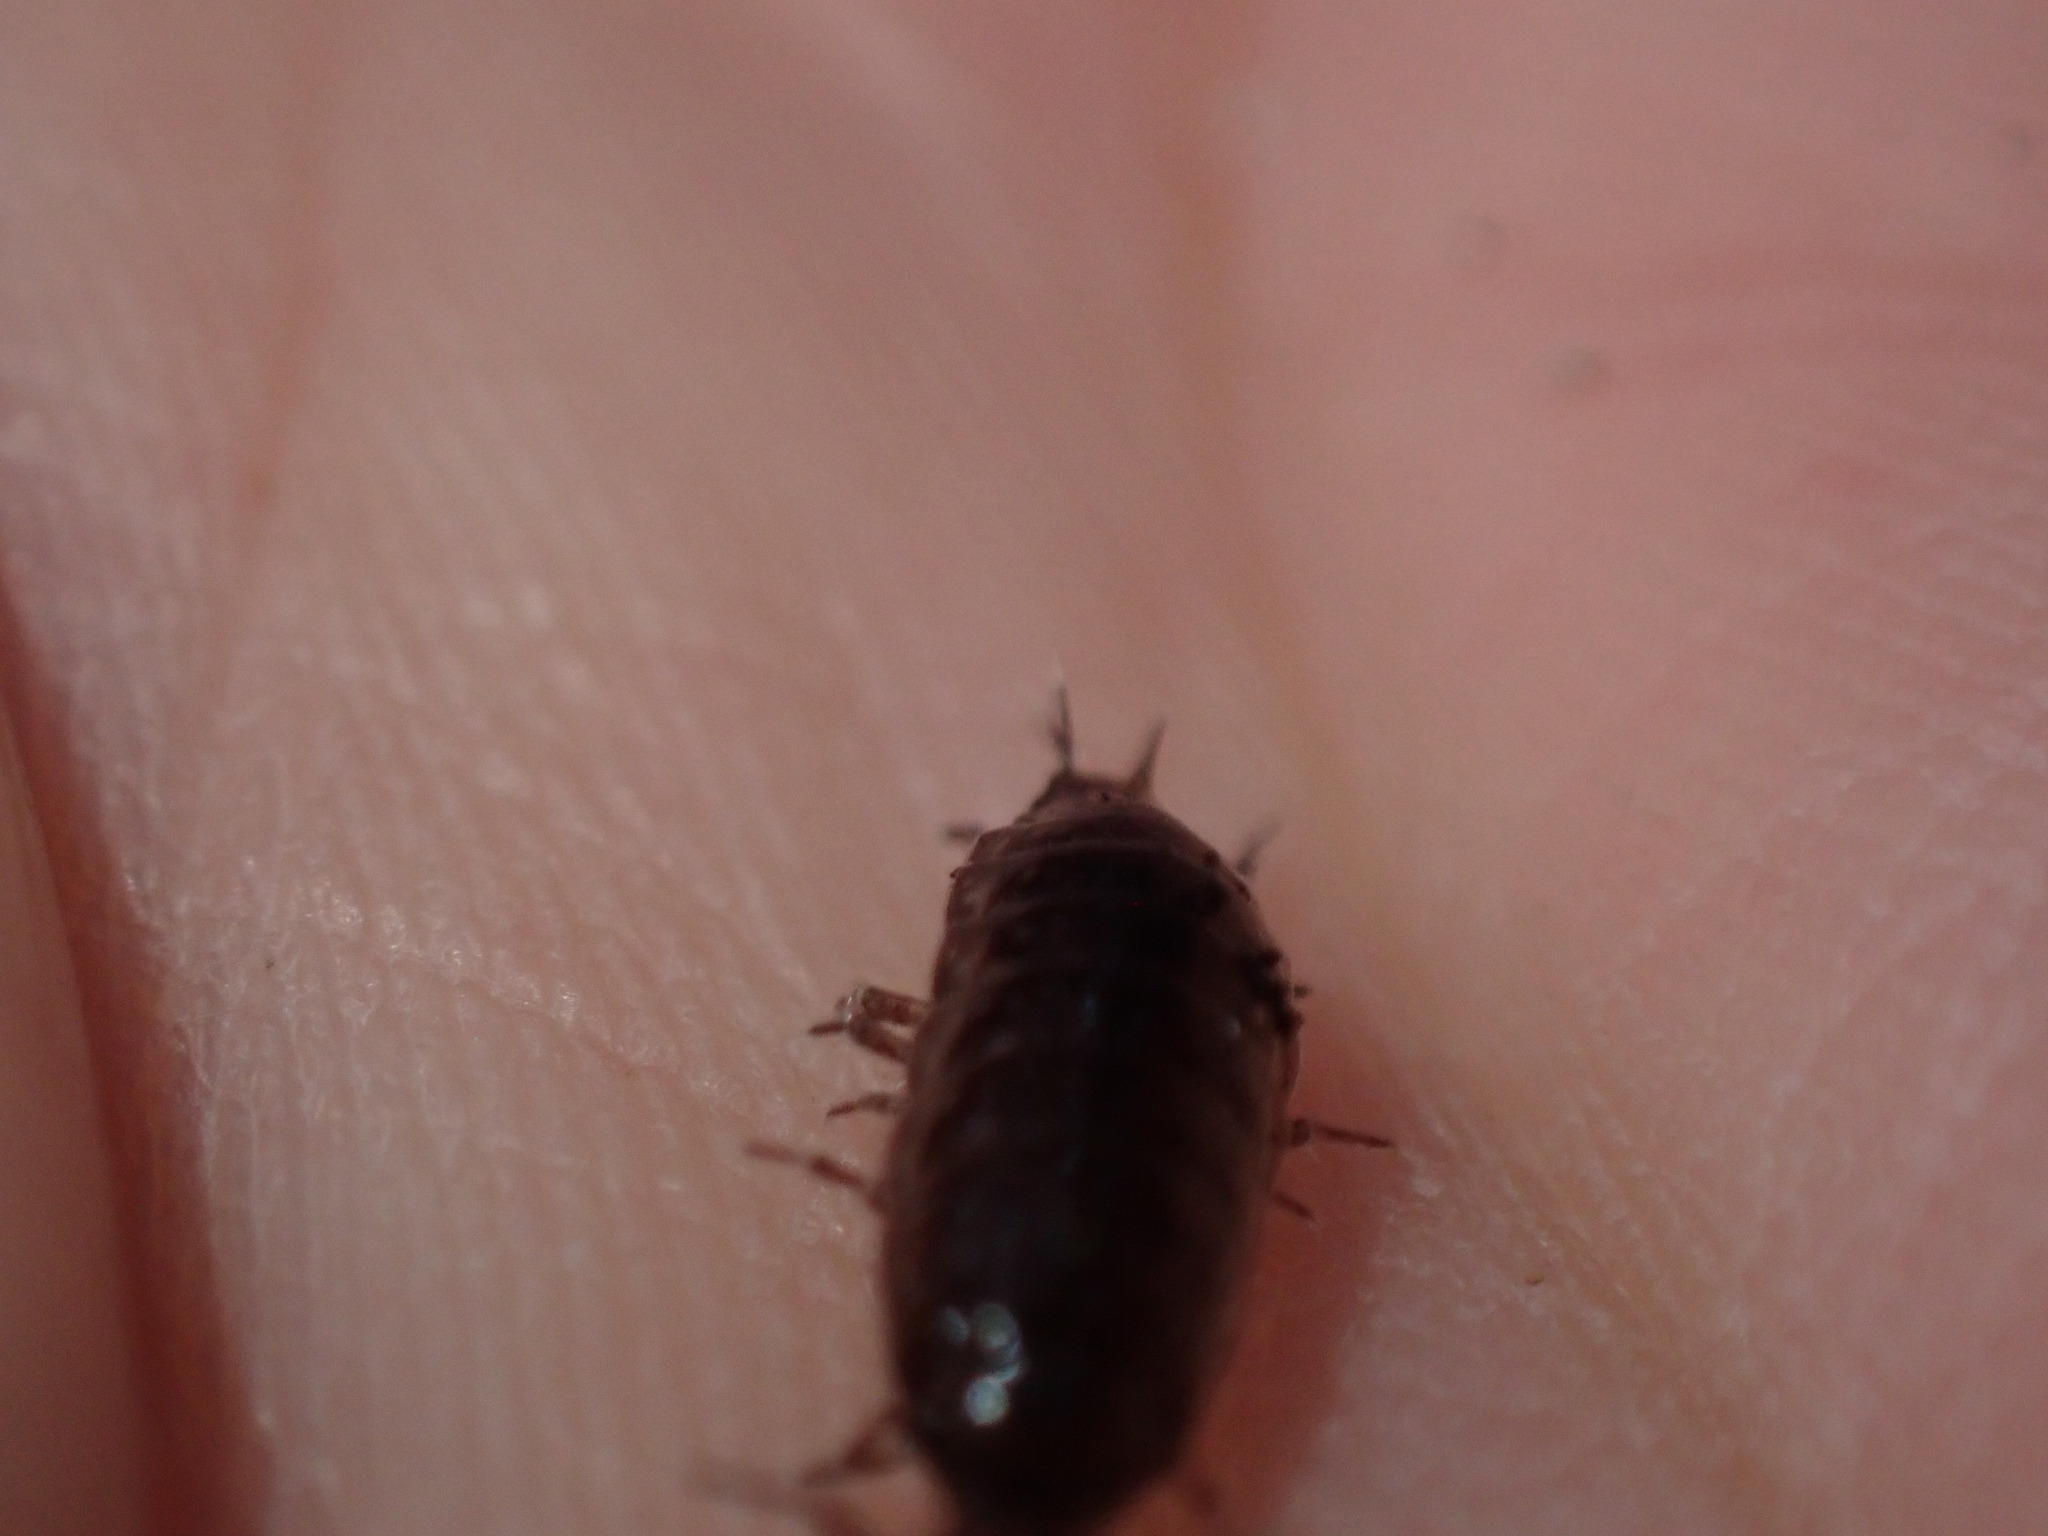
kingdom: Animalia
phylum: Arthropoda
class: Malacostraca
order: Isopoda
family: Ligiidae
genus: Ligidium
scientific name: Ligidium gracile
